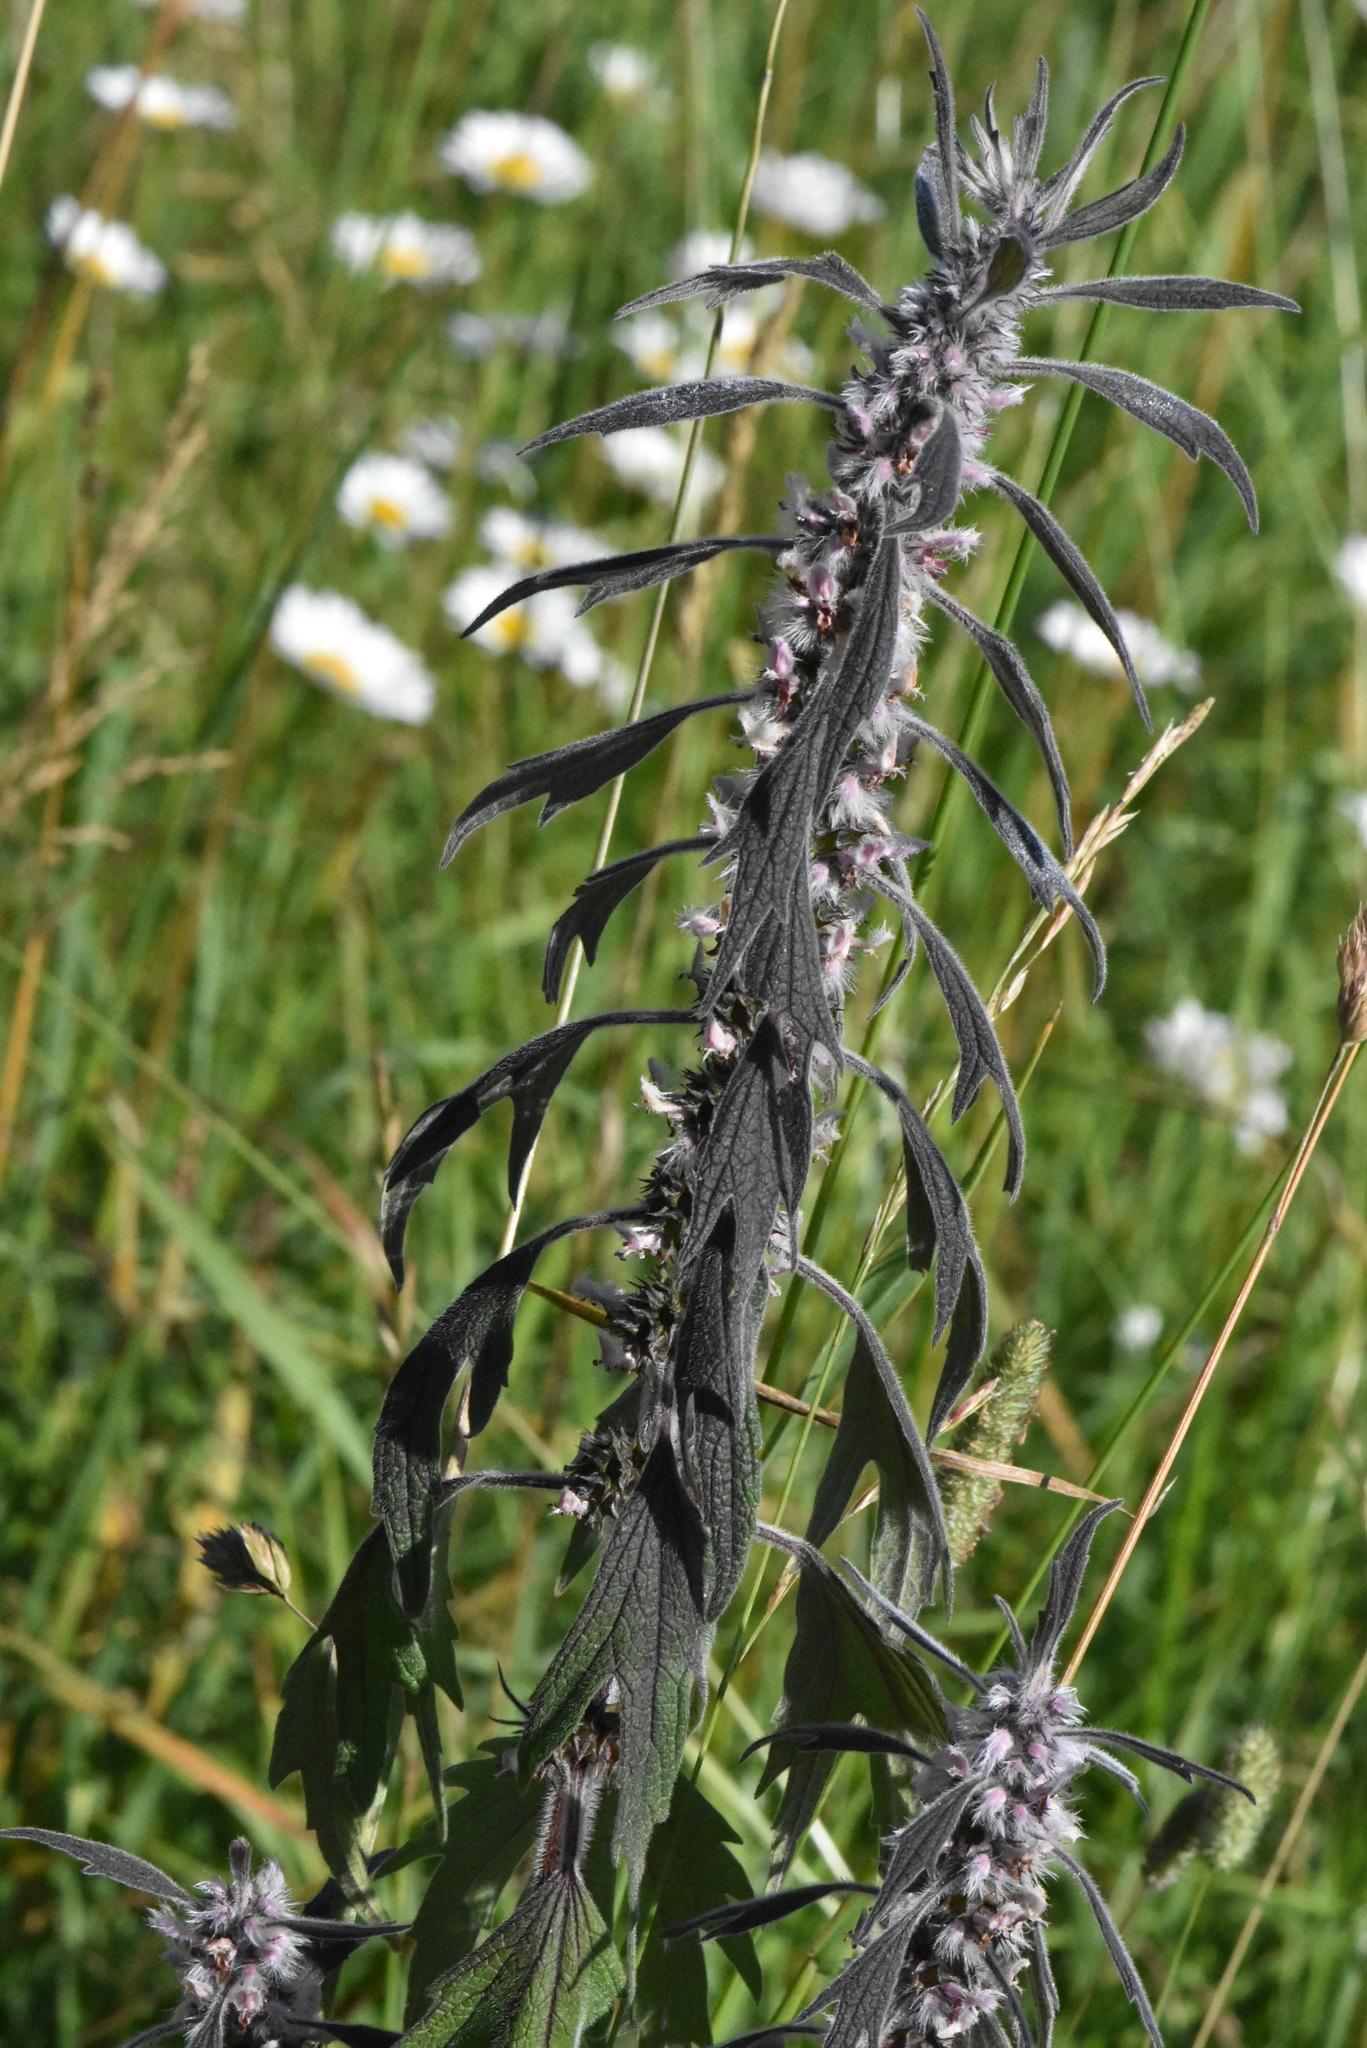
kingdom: Plantae
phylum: Tracheophyta
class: Magnoliopsida
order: Lamiales
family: Lamiaceae
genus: Leonurus
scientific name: Leonurus quinquelobatus
